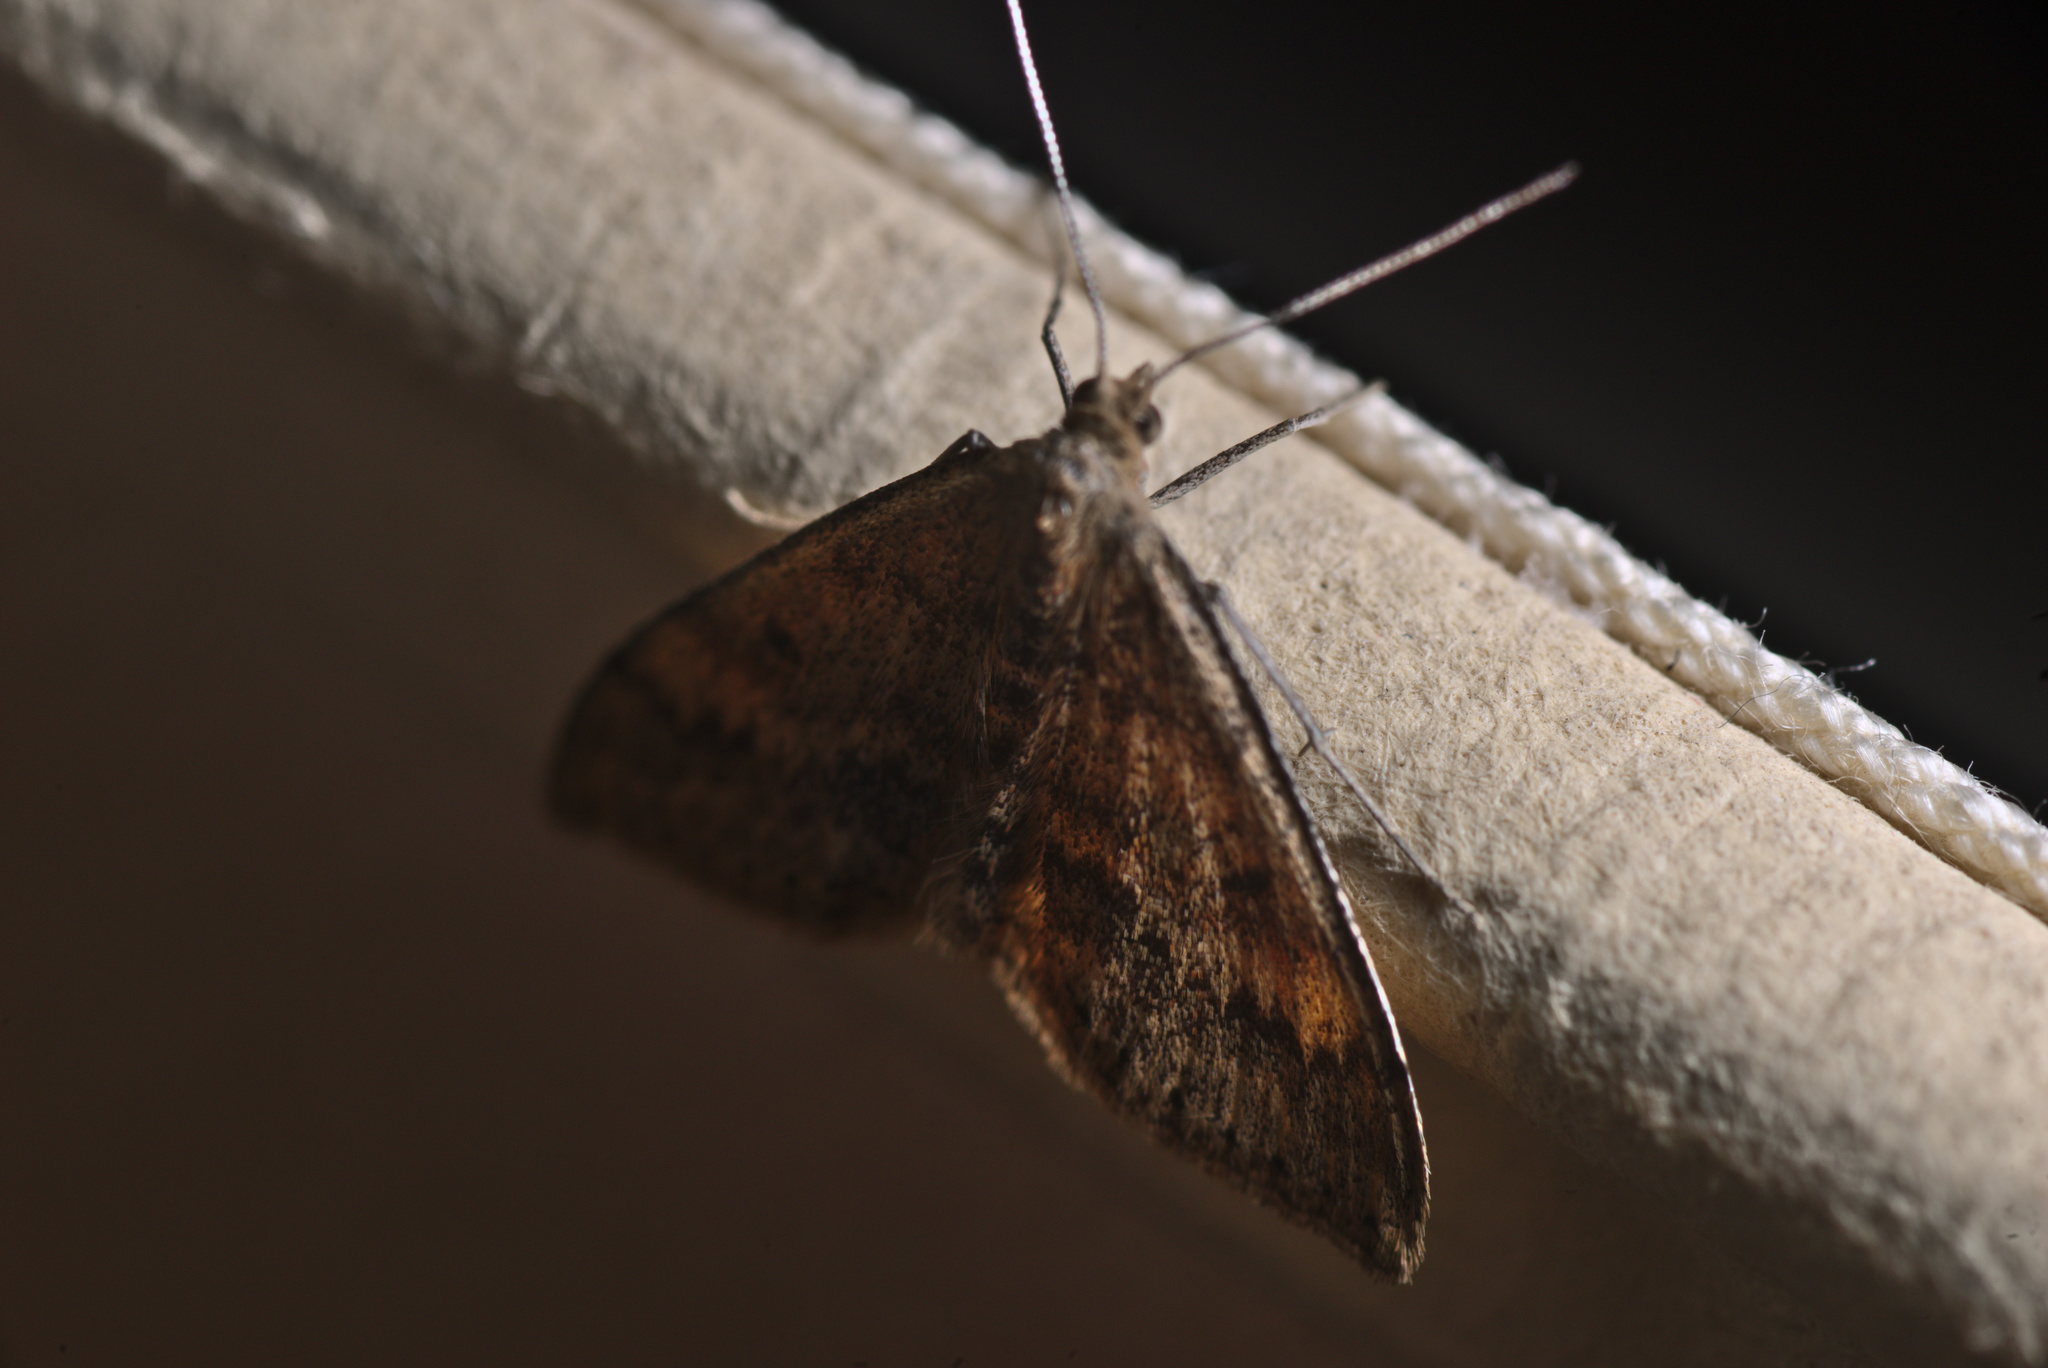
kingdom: Animalia
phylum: Arthropoda
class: Insecta
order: Lepidoptera
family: Geometridae
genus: Scopula
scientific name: Scopula rubraria
